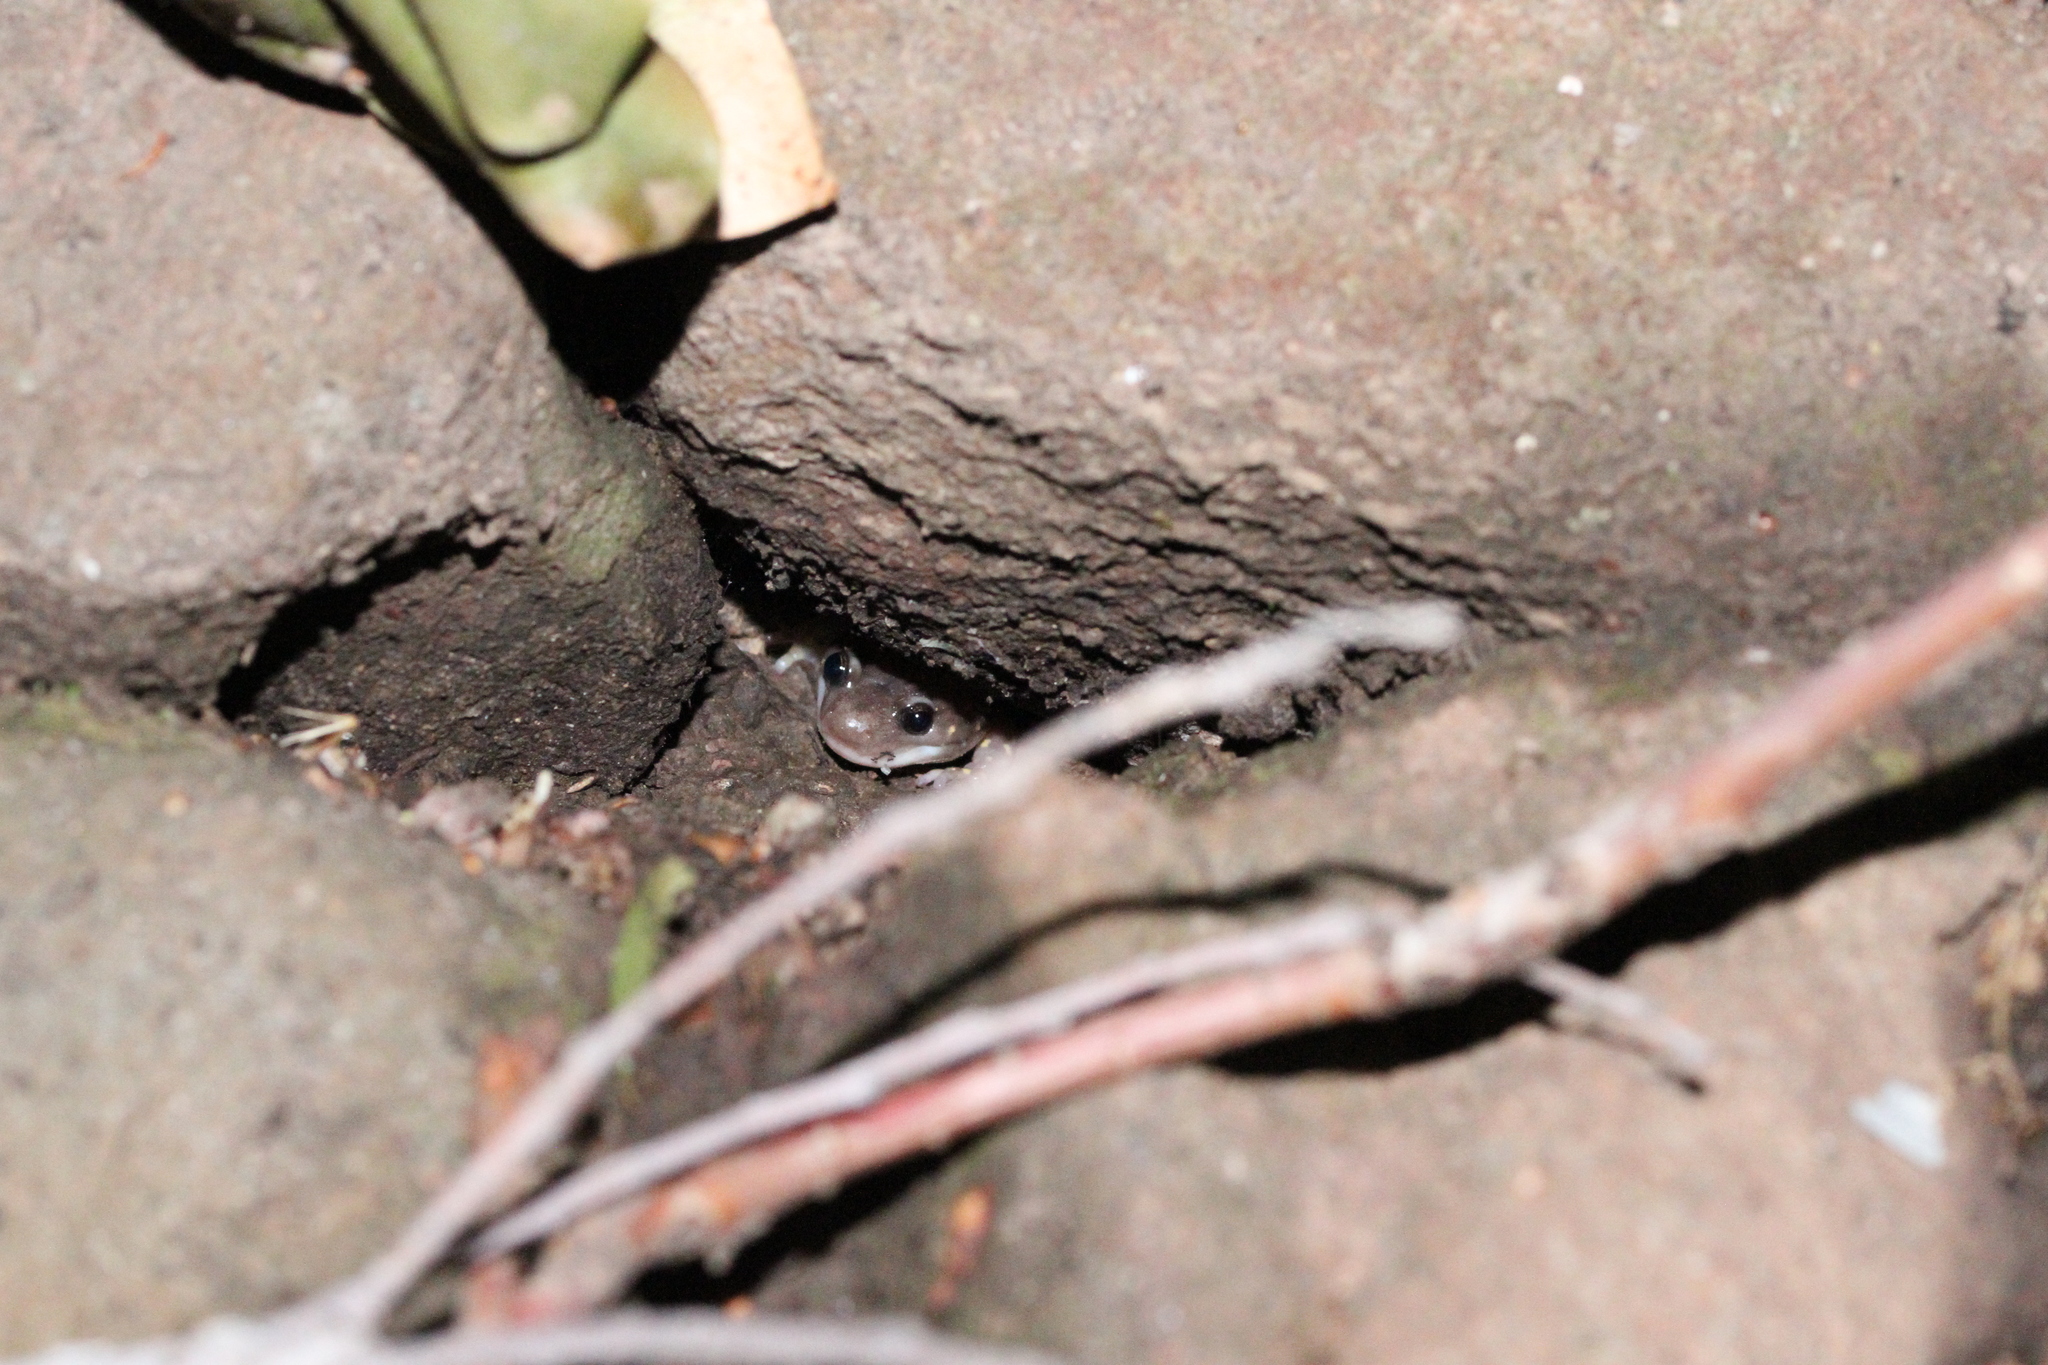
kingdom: Animalia
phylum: Chordata
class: Amphibia
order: Caudata
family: Plethodontidae
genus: Aneides
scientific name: Aneides lugubris
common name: Arboreal salamander
